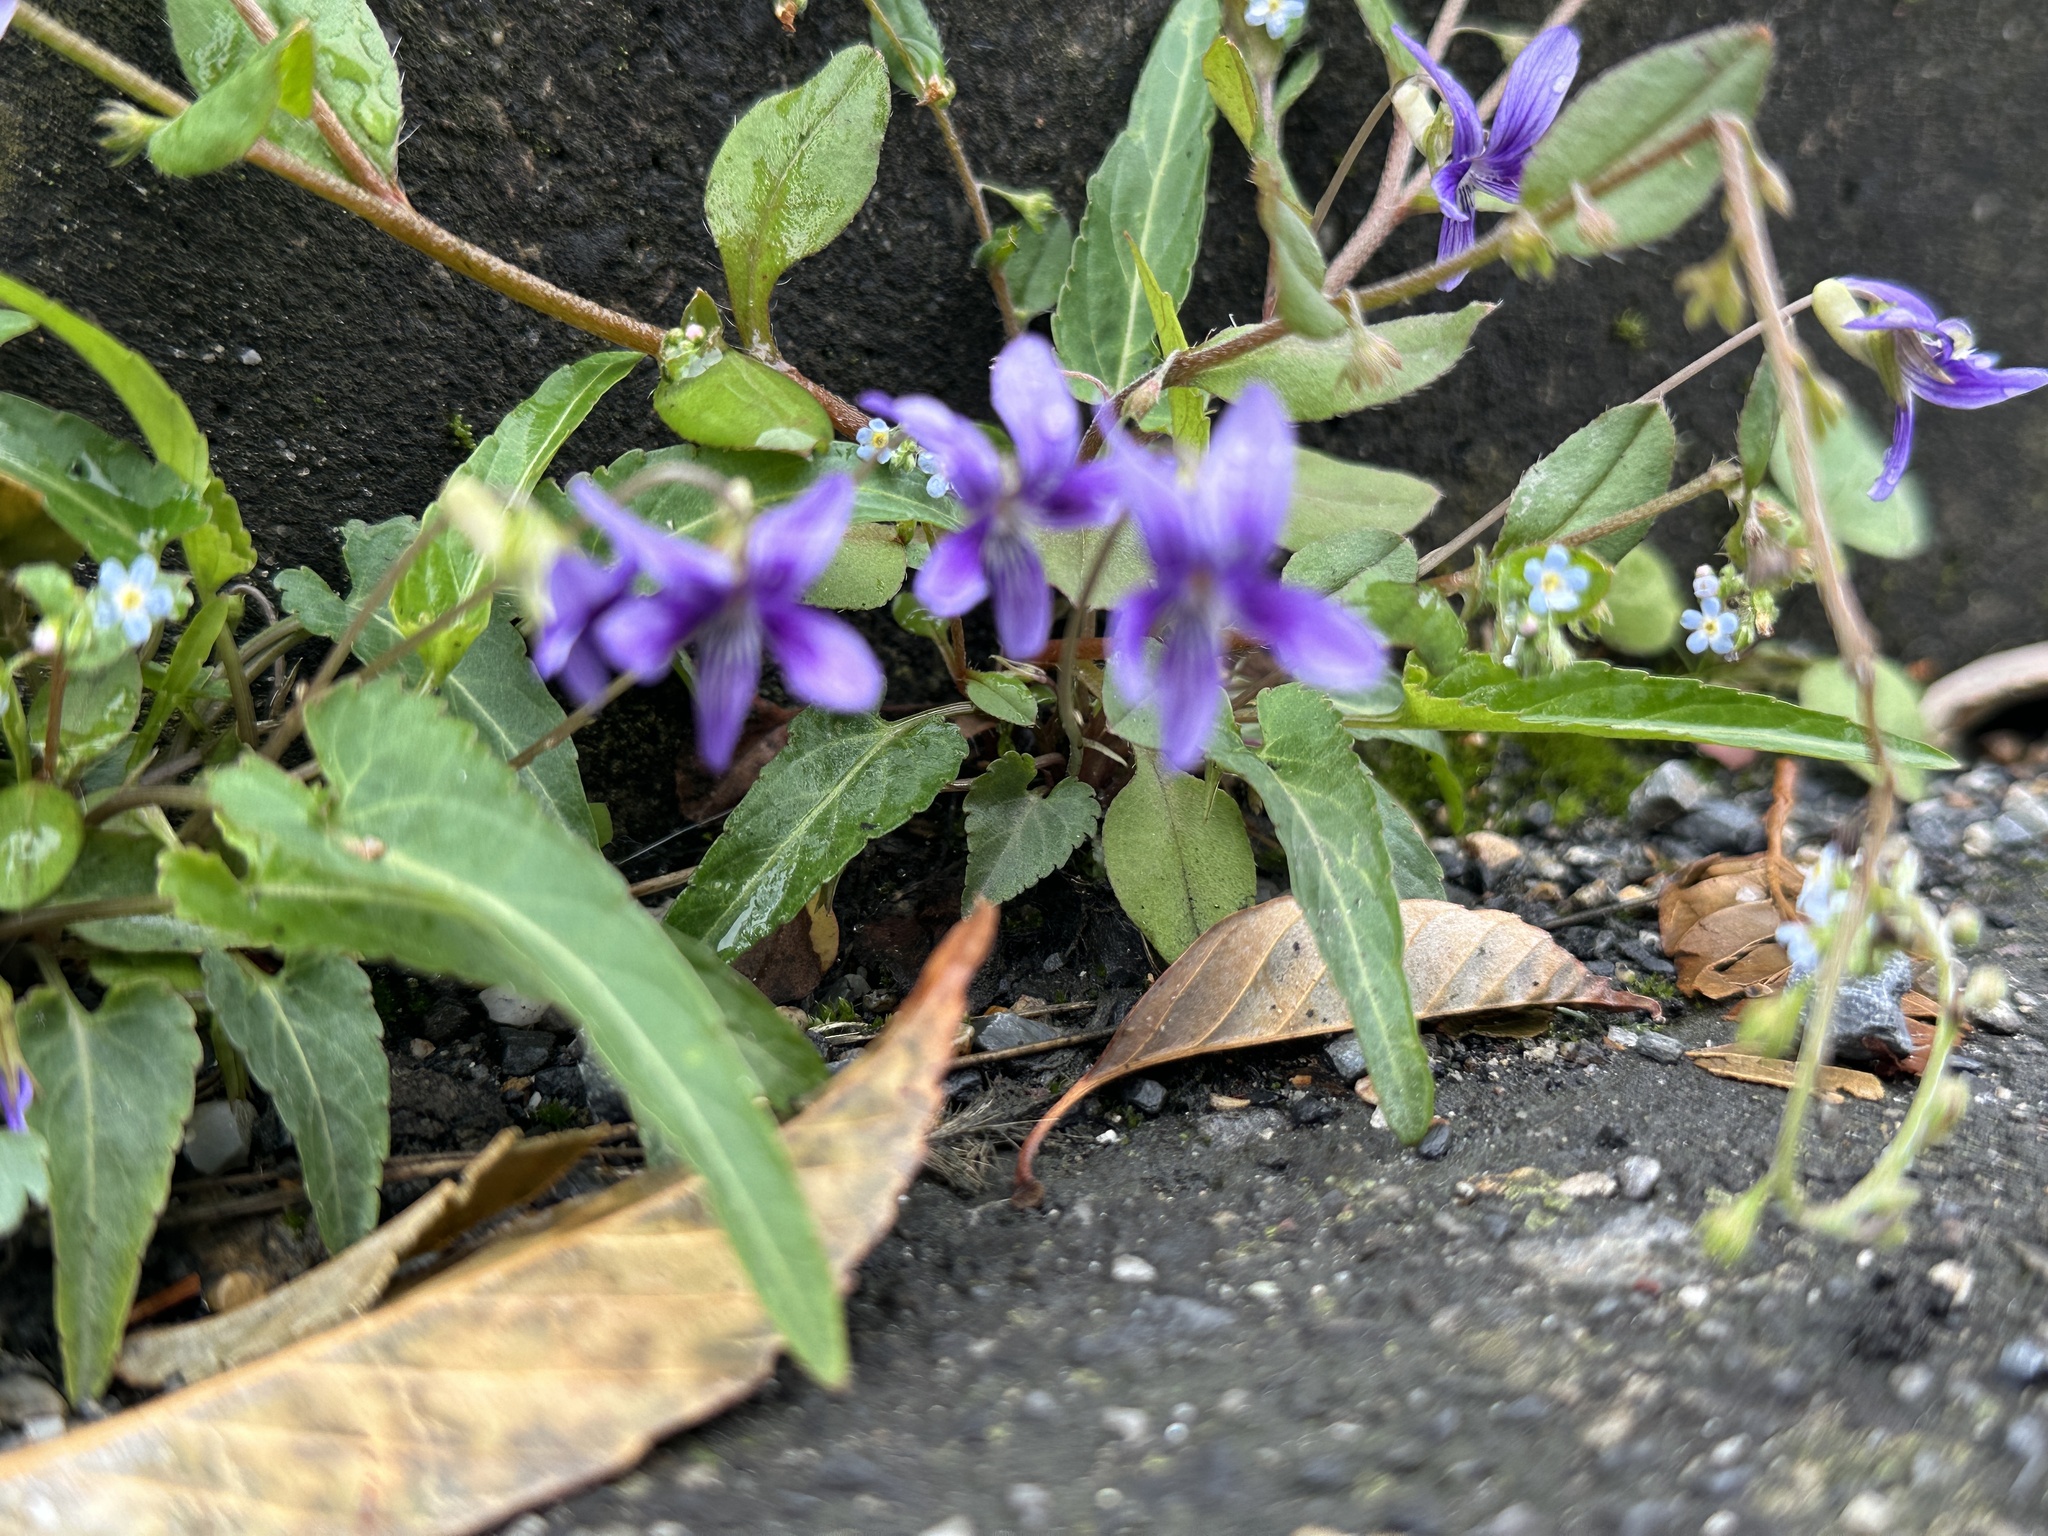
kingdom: Plantae
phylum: Tracheophyta
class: Magnoliopsida
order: Malpighiales
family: Violaceae
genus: Viola
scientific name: Viola inconspicua
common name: Long sepal violet
